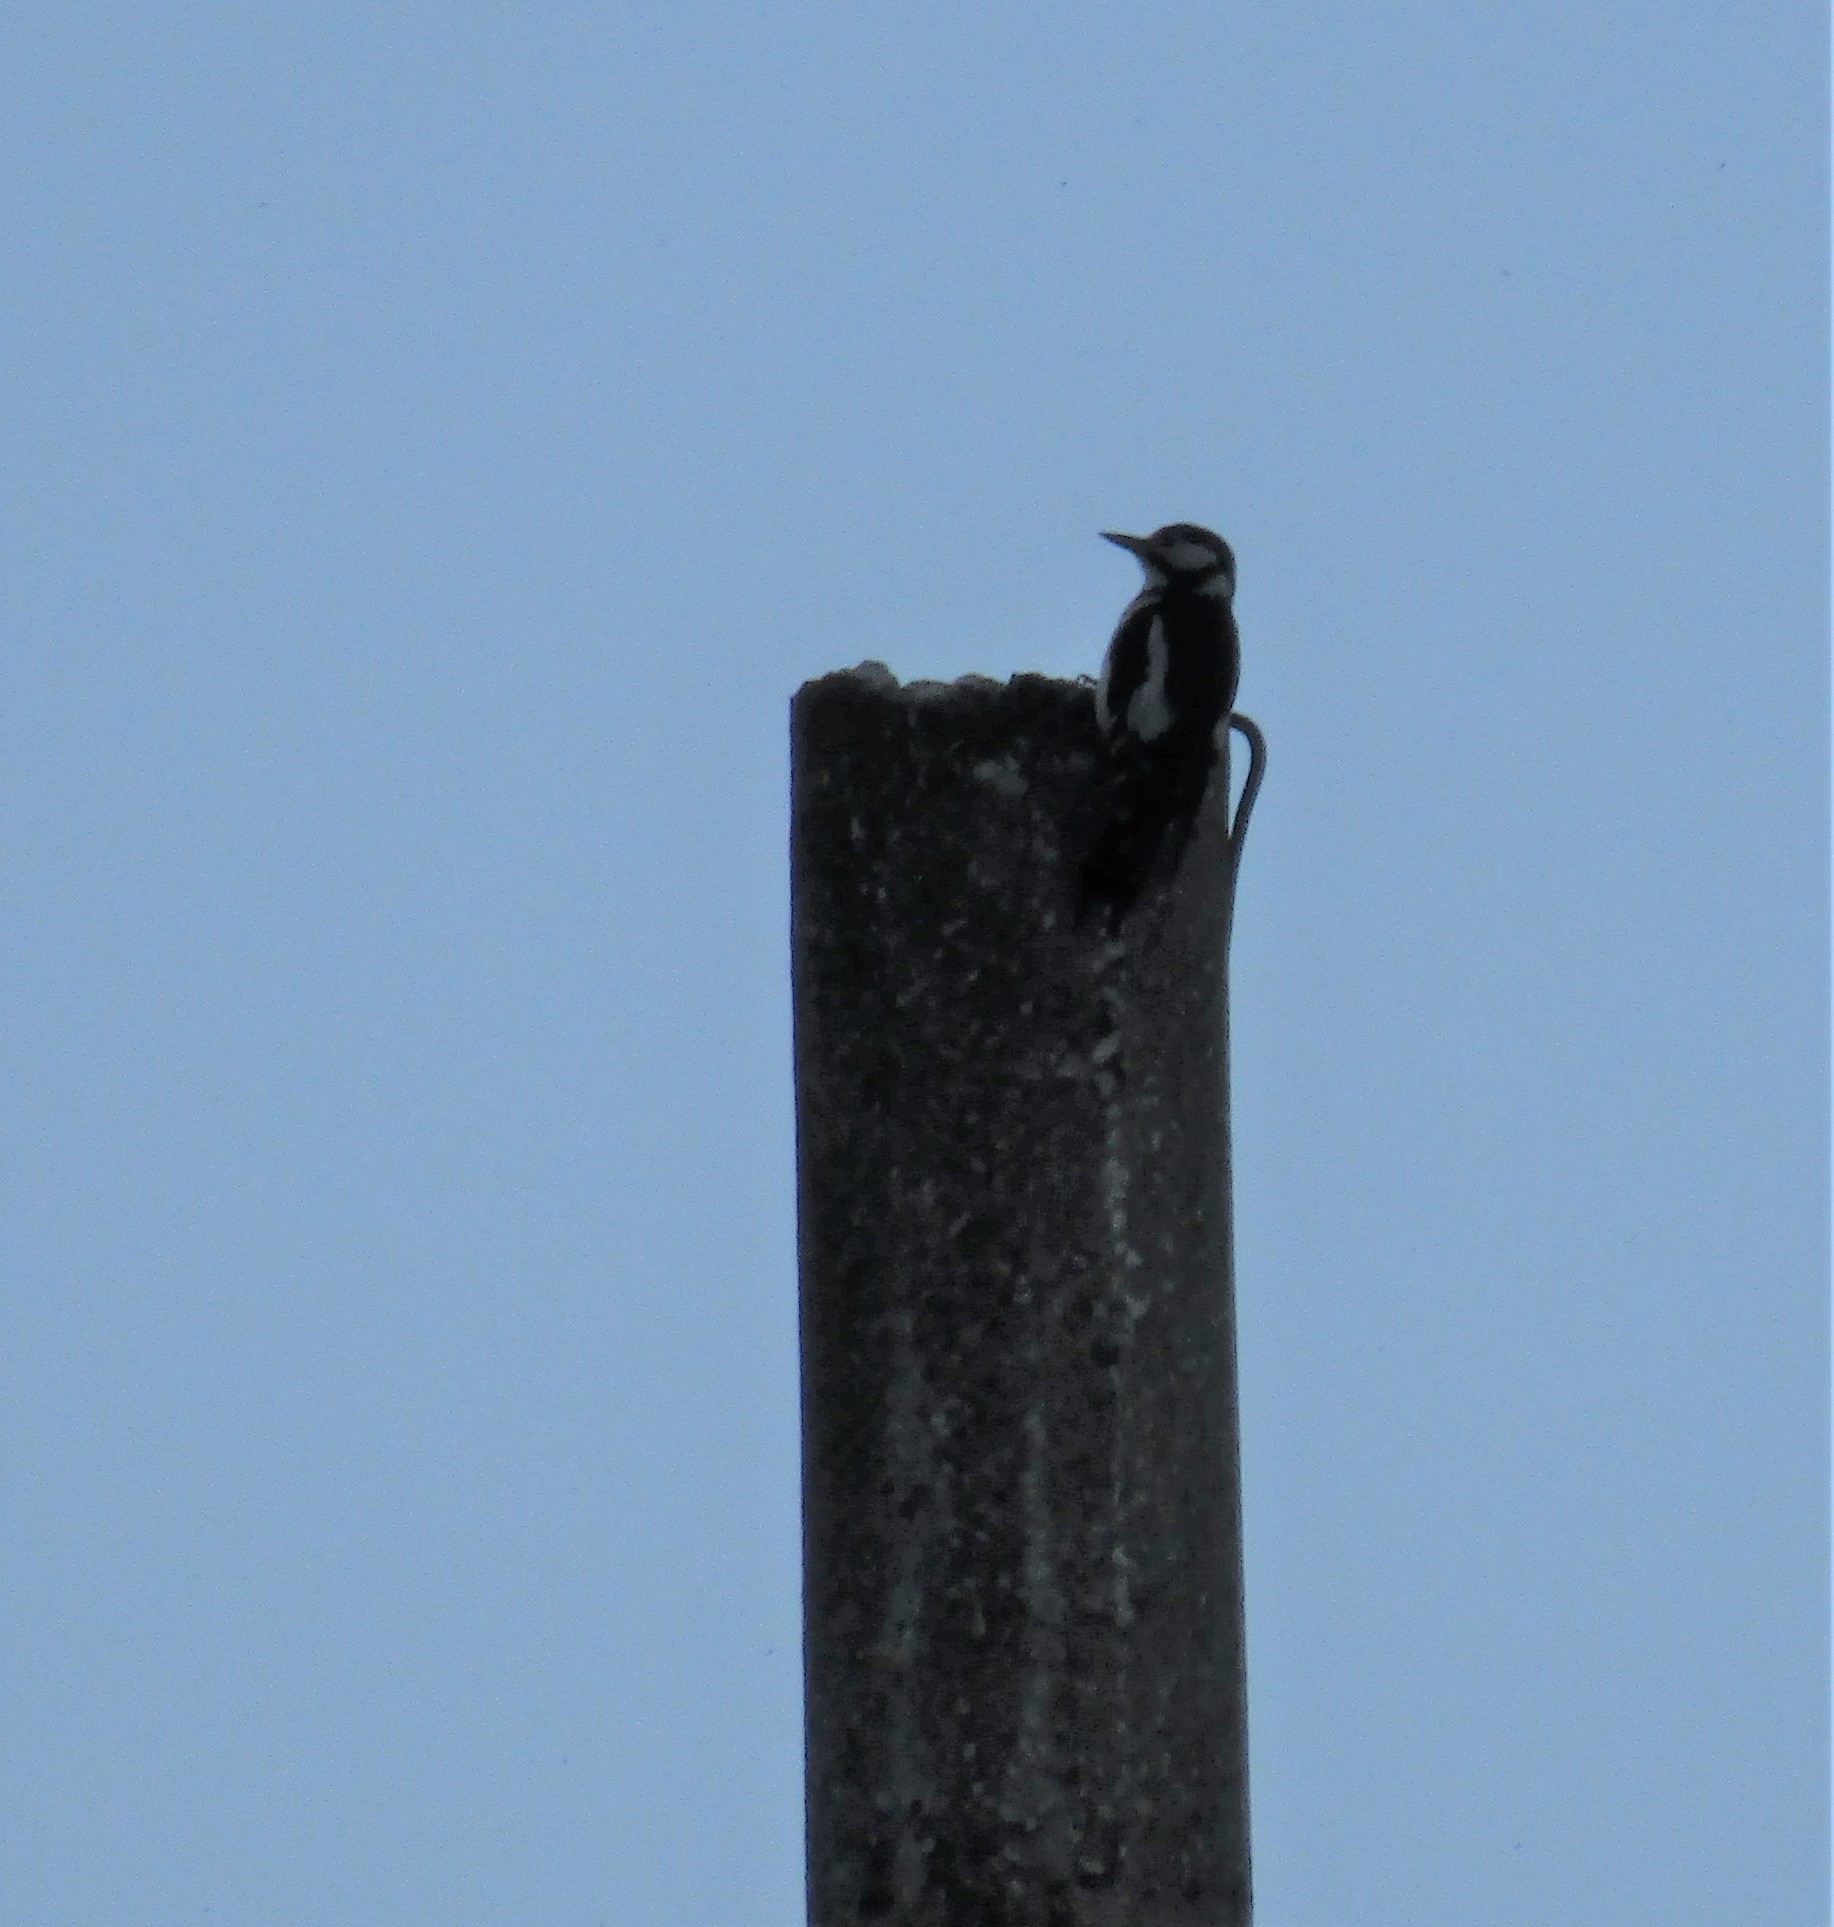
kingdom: Animalia
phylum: Chordata
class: Aves
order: Piciformes
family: Picidae
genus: Dendrocopos
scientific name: Dendrocopos major
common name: Great spotted woodpecker
